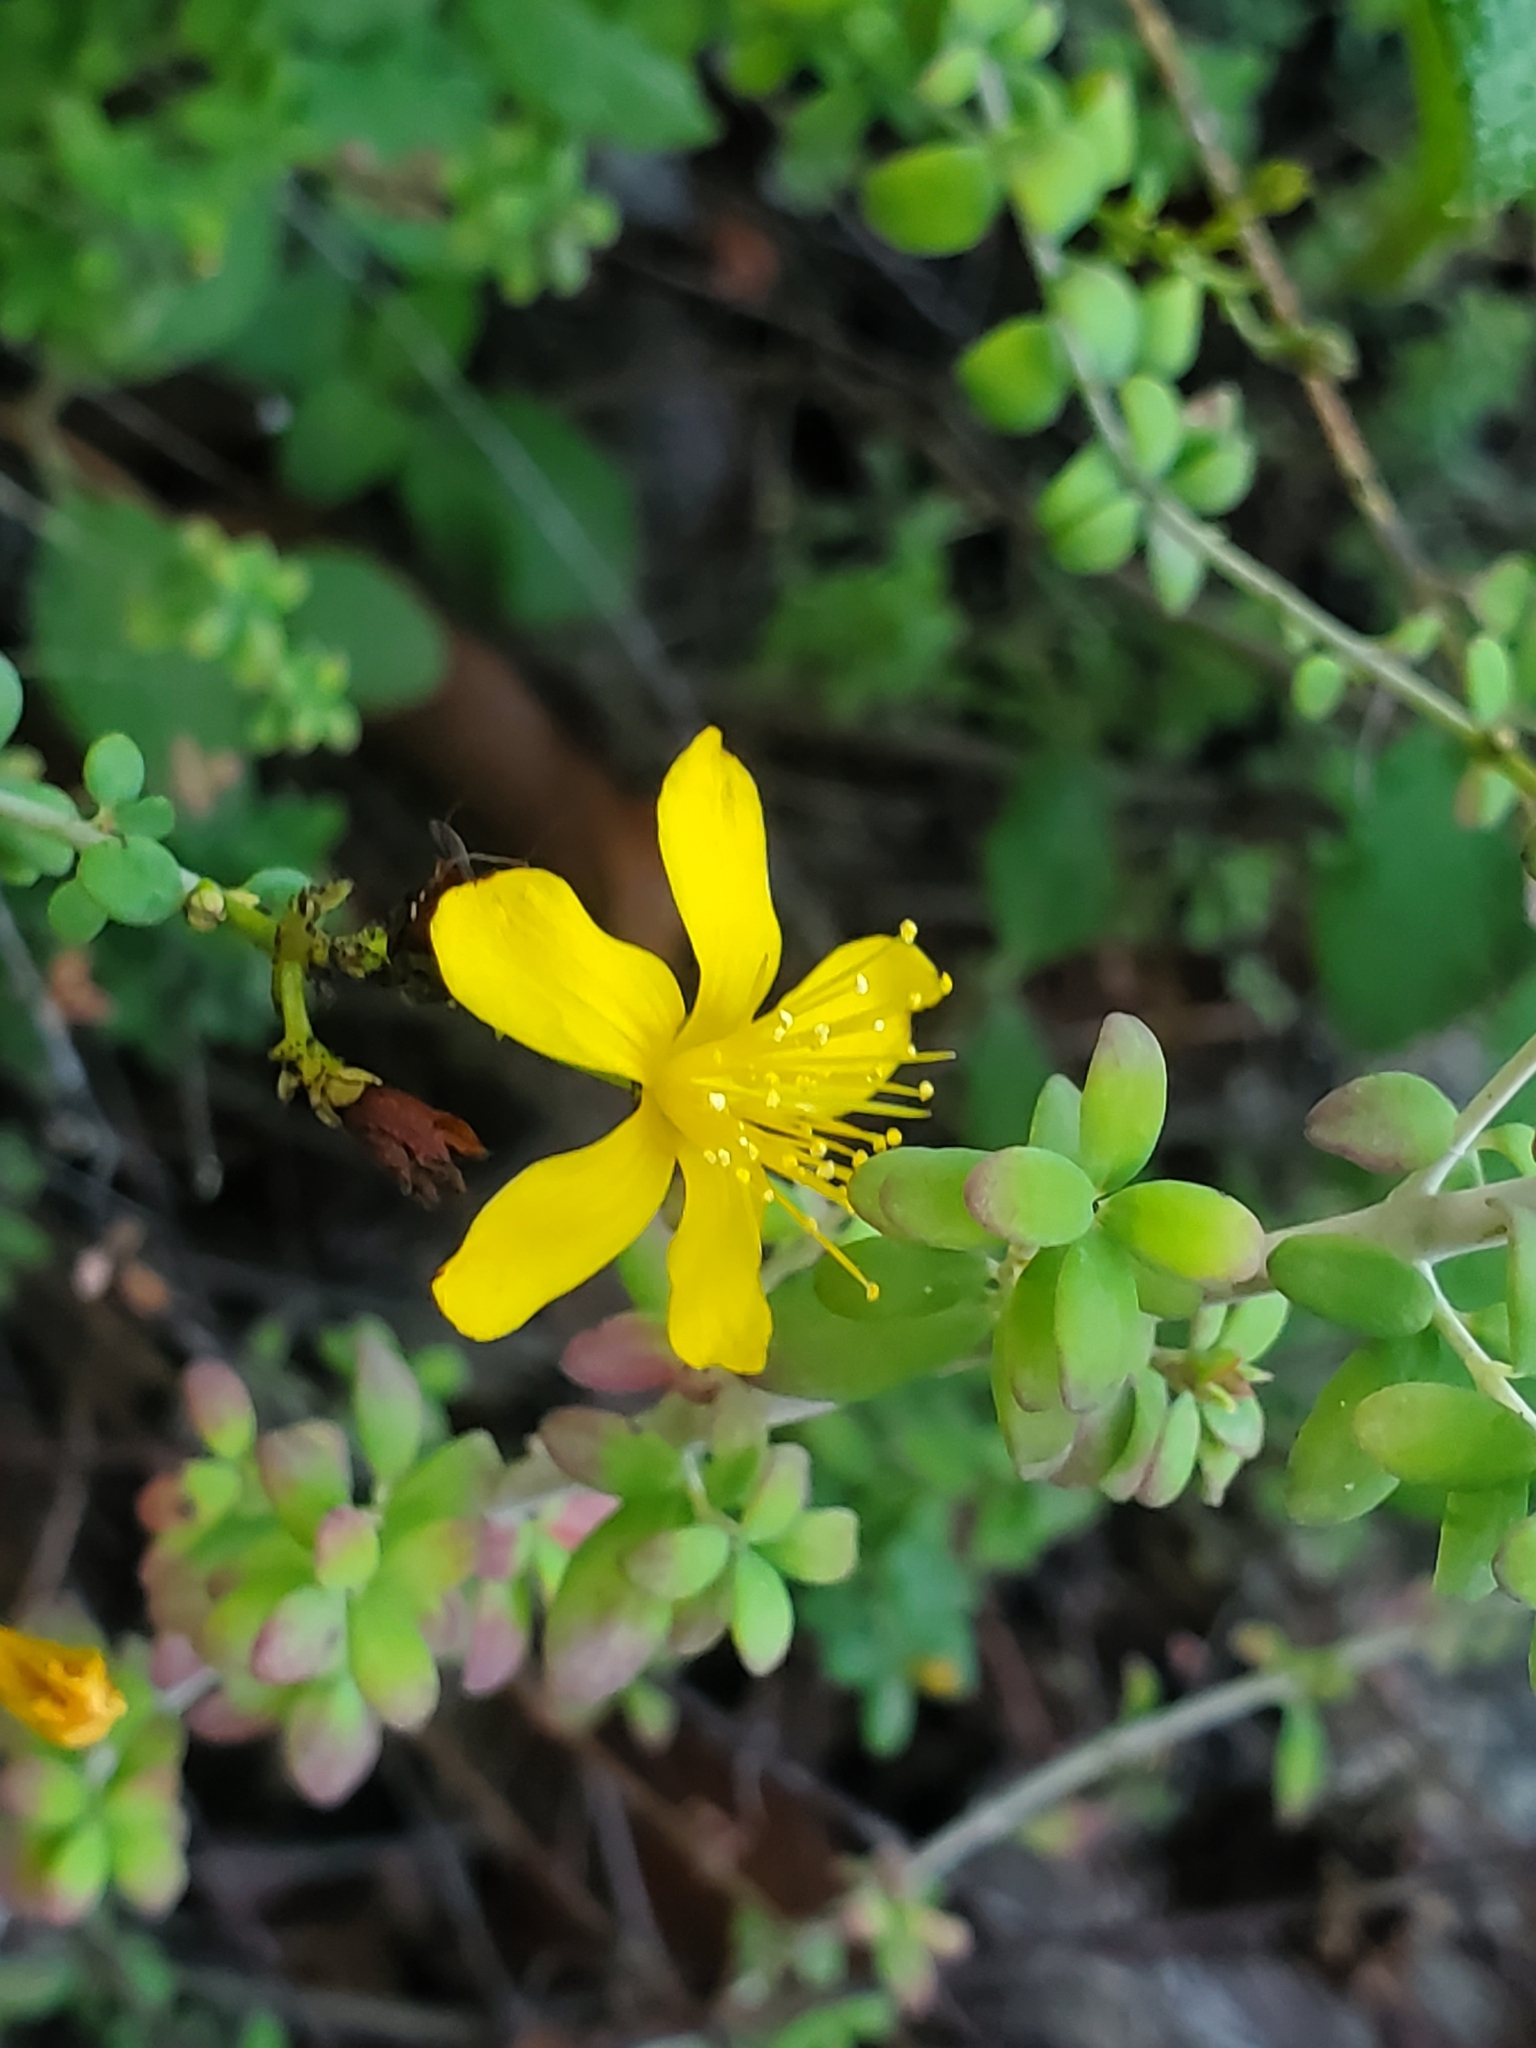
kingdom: Plantae
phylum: Tracheophyta
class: Magnoliopsida
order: Malpighiales
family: Hypericaceae
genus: Hypericum
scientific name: Hypericum thymifolium
